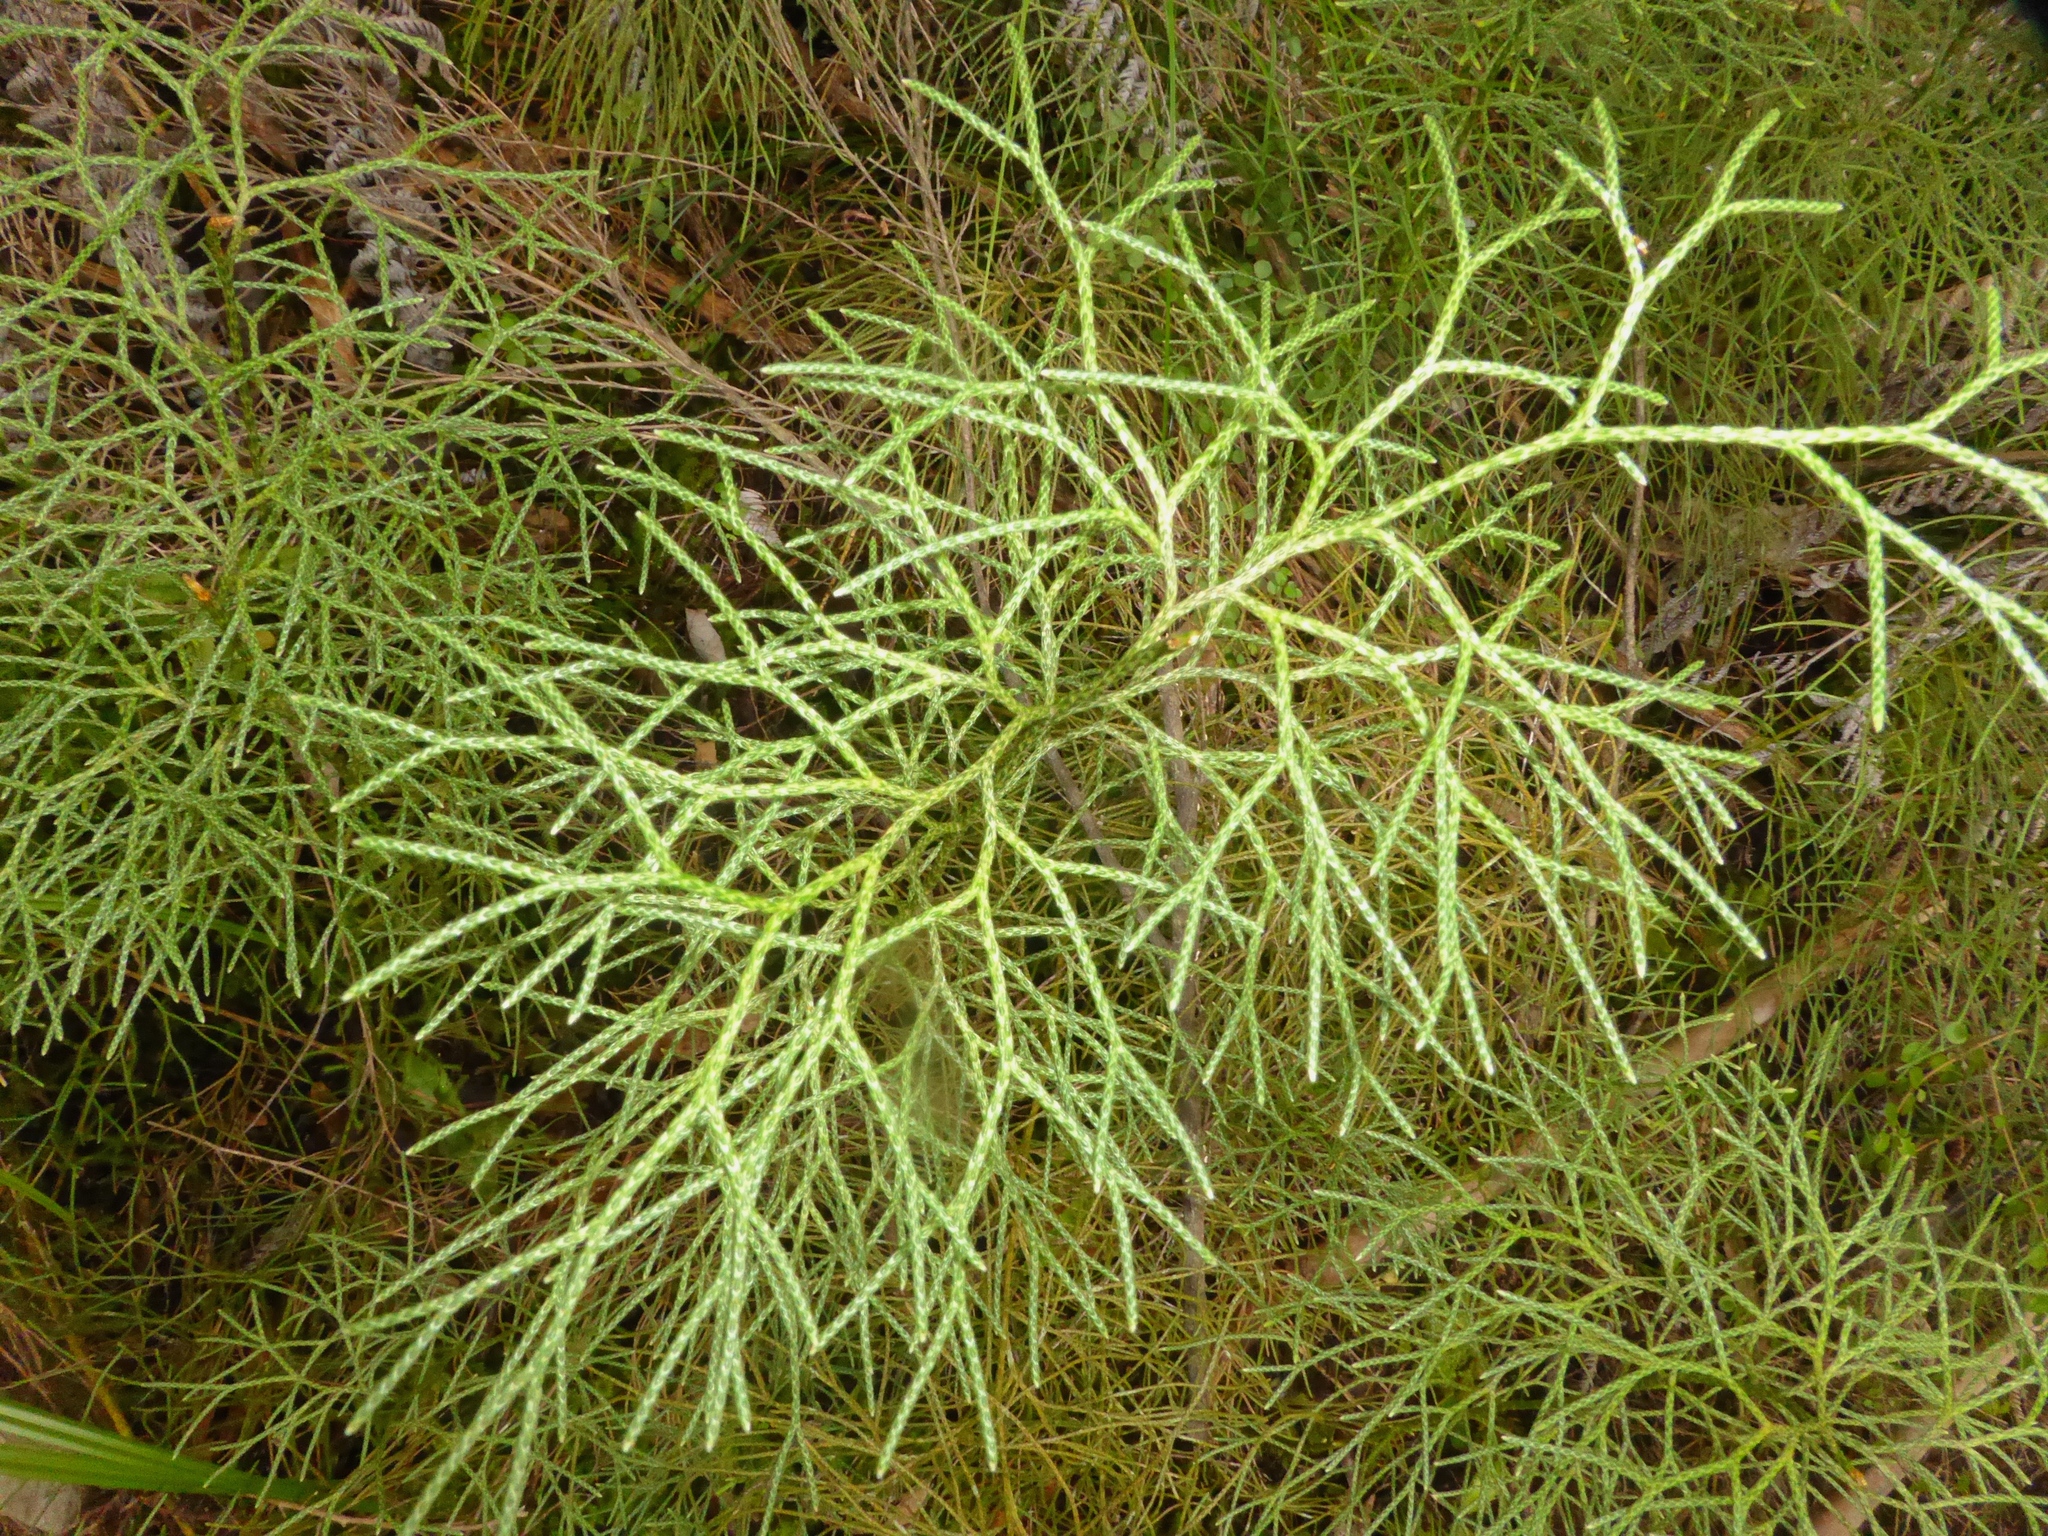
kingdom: Plantae
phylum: Tracheophyta
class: Lycopodiopsida
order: Lycopodiales
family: Lycopodiaceae
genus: Pseudolycopodium
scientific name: Pseudolycopodium densum
